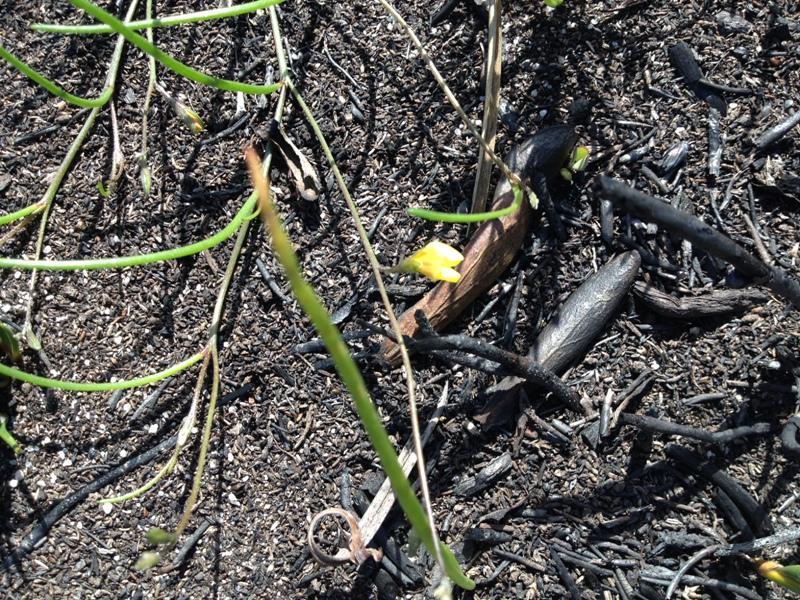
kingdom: Plantae
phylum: Tracheophyta
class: Magnoliopsida
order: Fabales
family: Fabaceae
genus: Lebeckia
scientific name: Lebeckia wrightii
